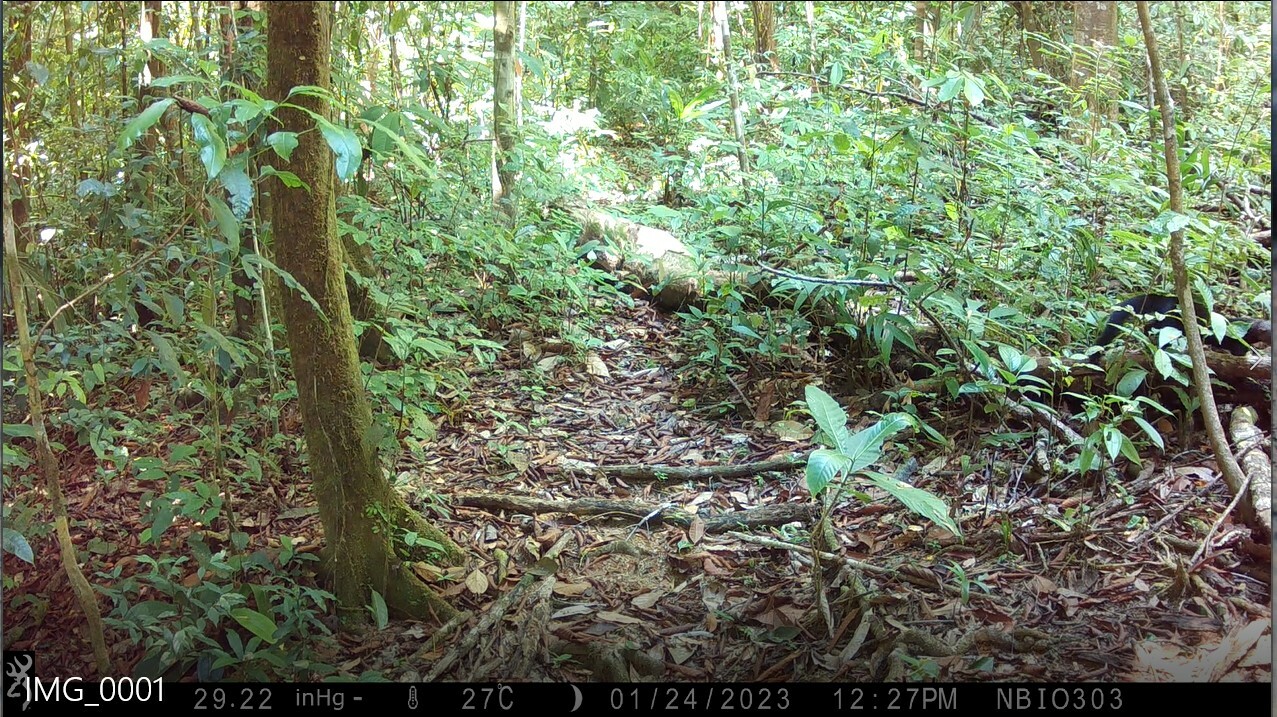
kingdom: Animalia
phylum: Chordata
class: Mammalia
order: Carnivora
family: Mustelidae
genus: Eira
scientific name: Eira barbara
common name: Tayra
